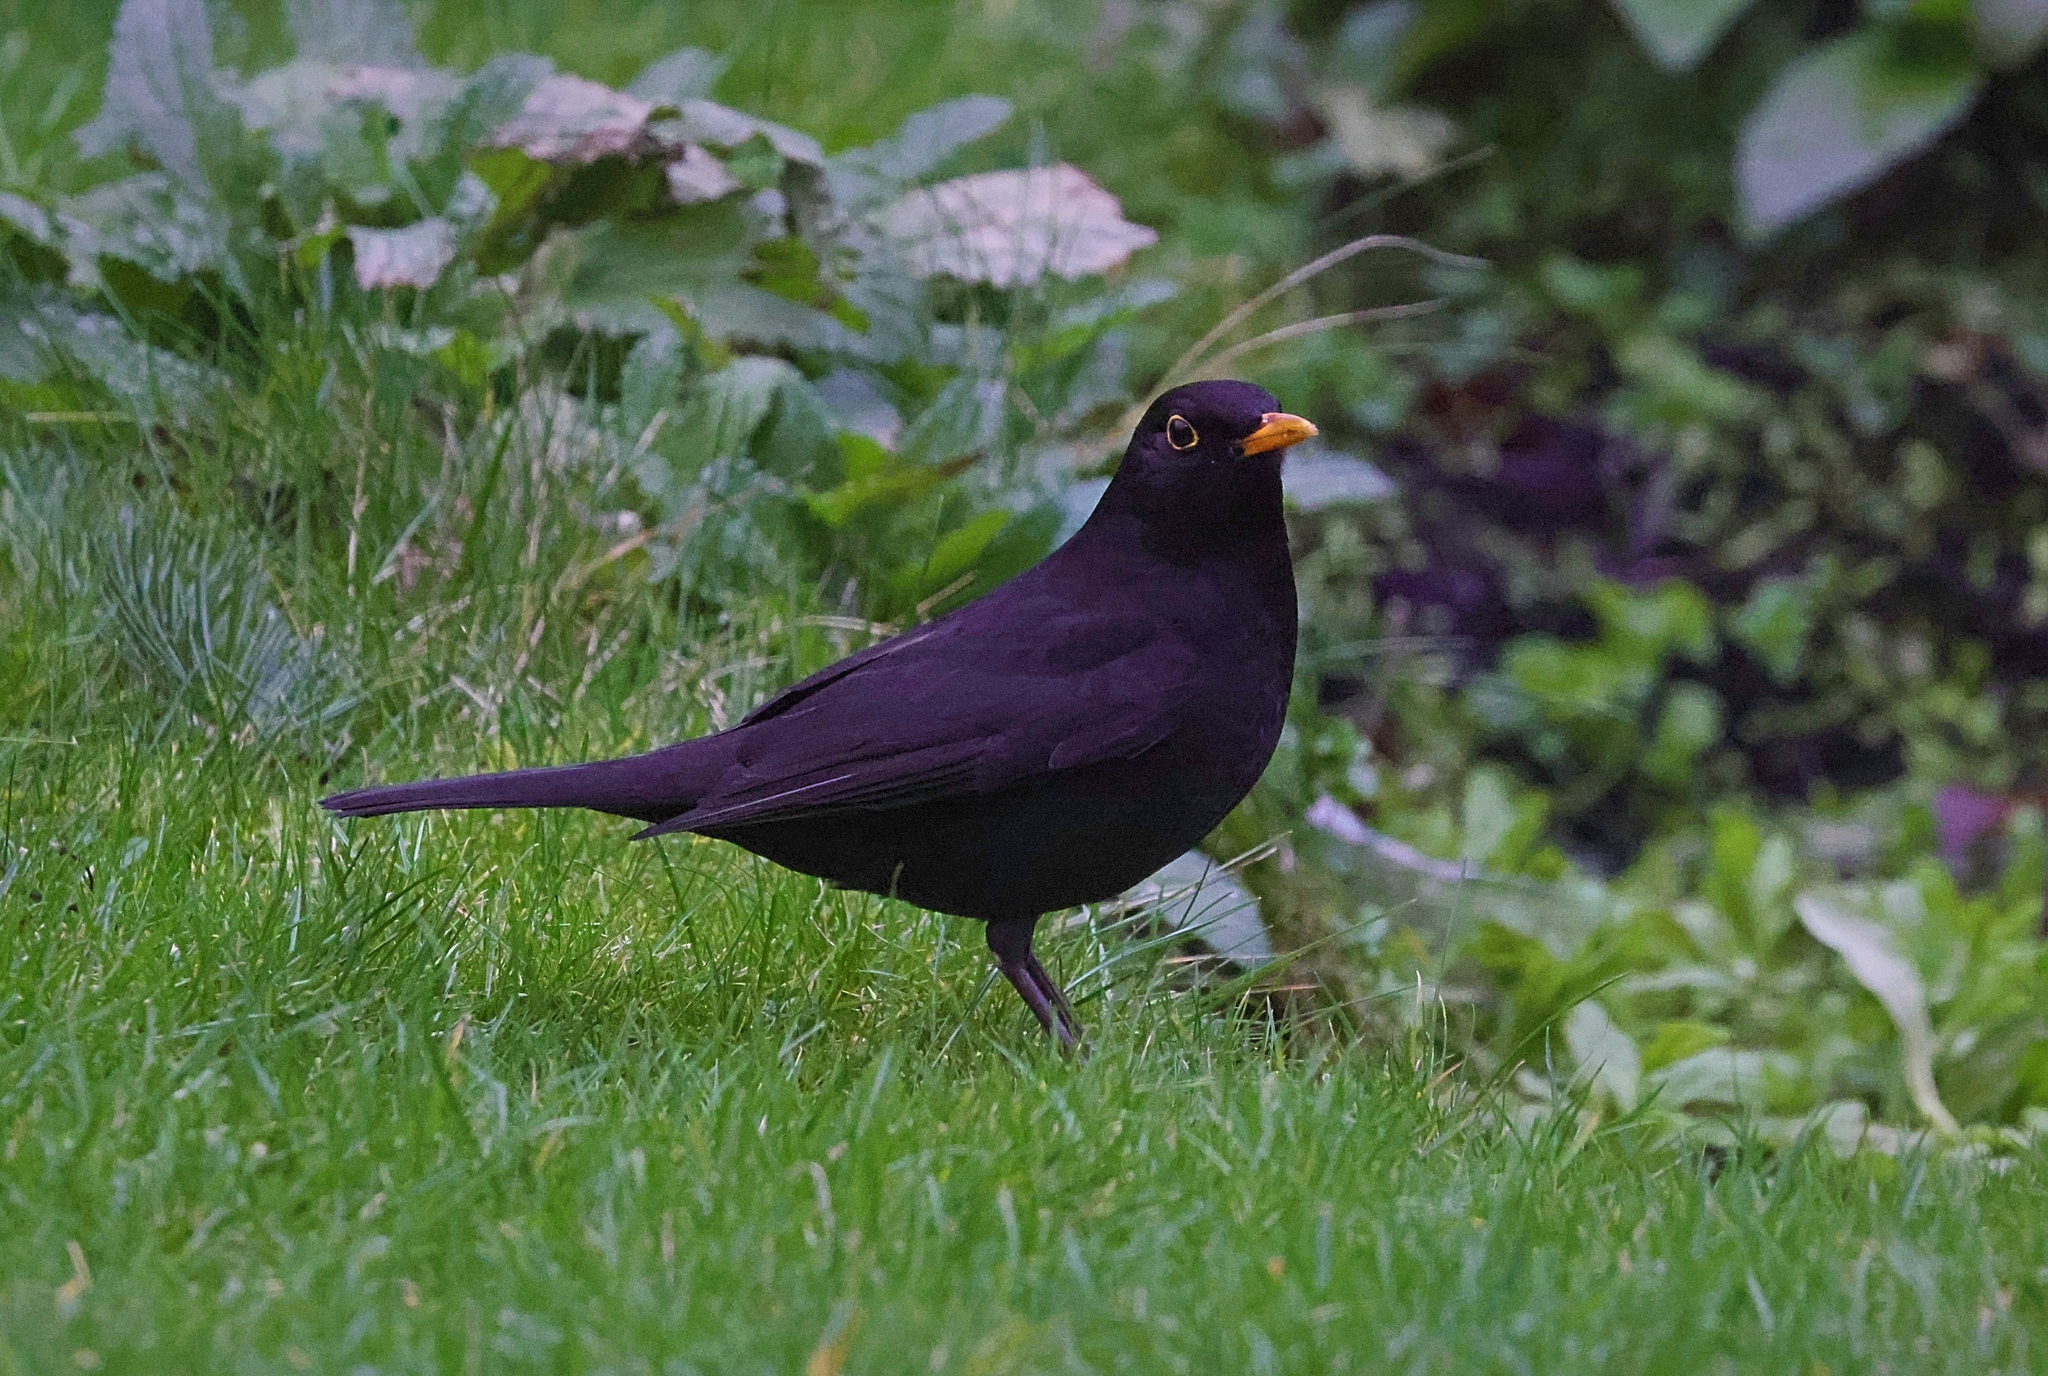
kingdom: Animalia
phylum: Chordata
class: Aves
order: Passeriformes
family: Turdidae
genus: Turdus
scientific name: Turdus merula
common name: Common blackbird
